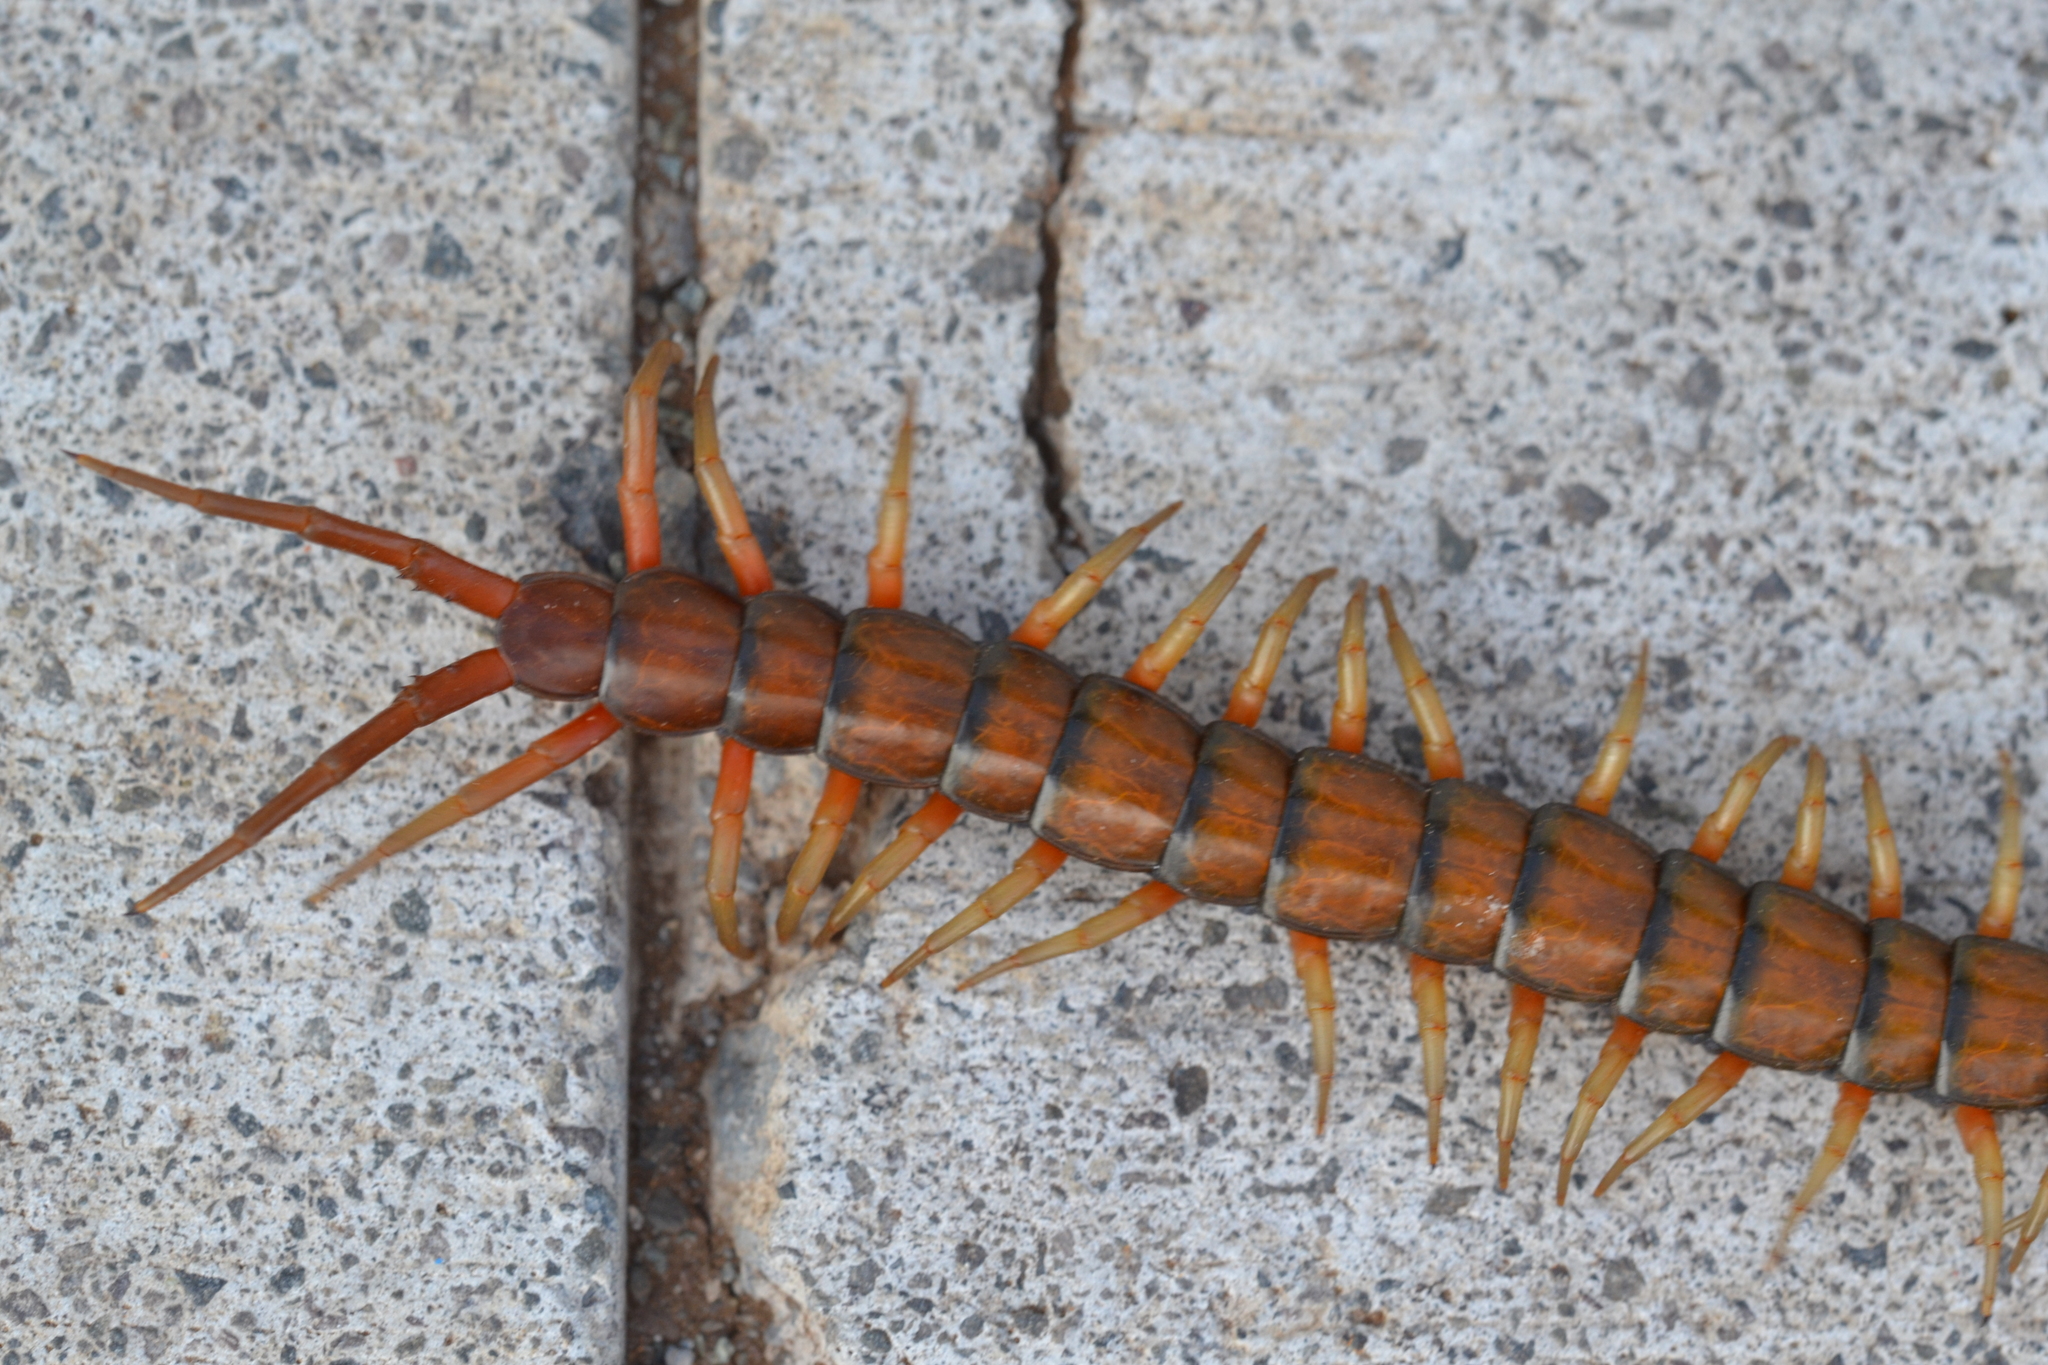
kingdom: Animalia
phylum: Arthropoda
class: Chilopoda
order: Scolopendromorpha
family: Scolopendridae
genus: Scolopendra
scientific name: Scolopendra subspinipes
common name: Centipede
